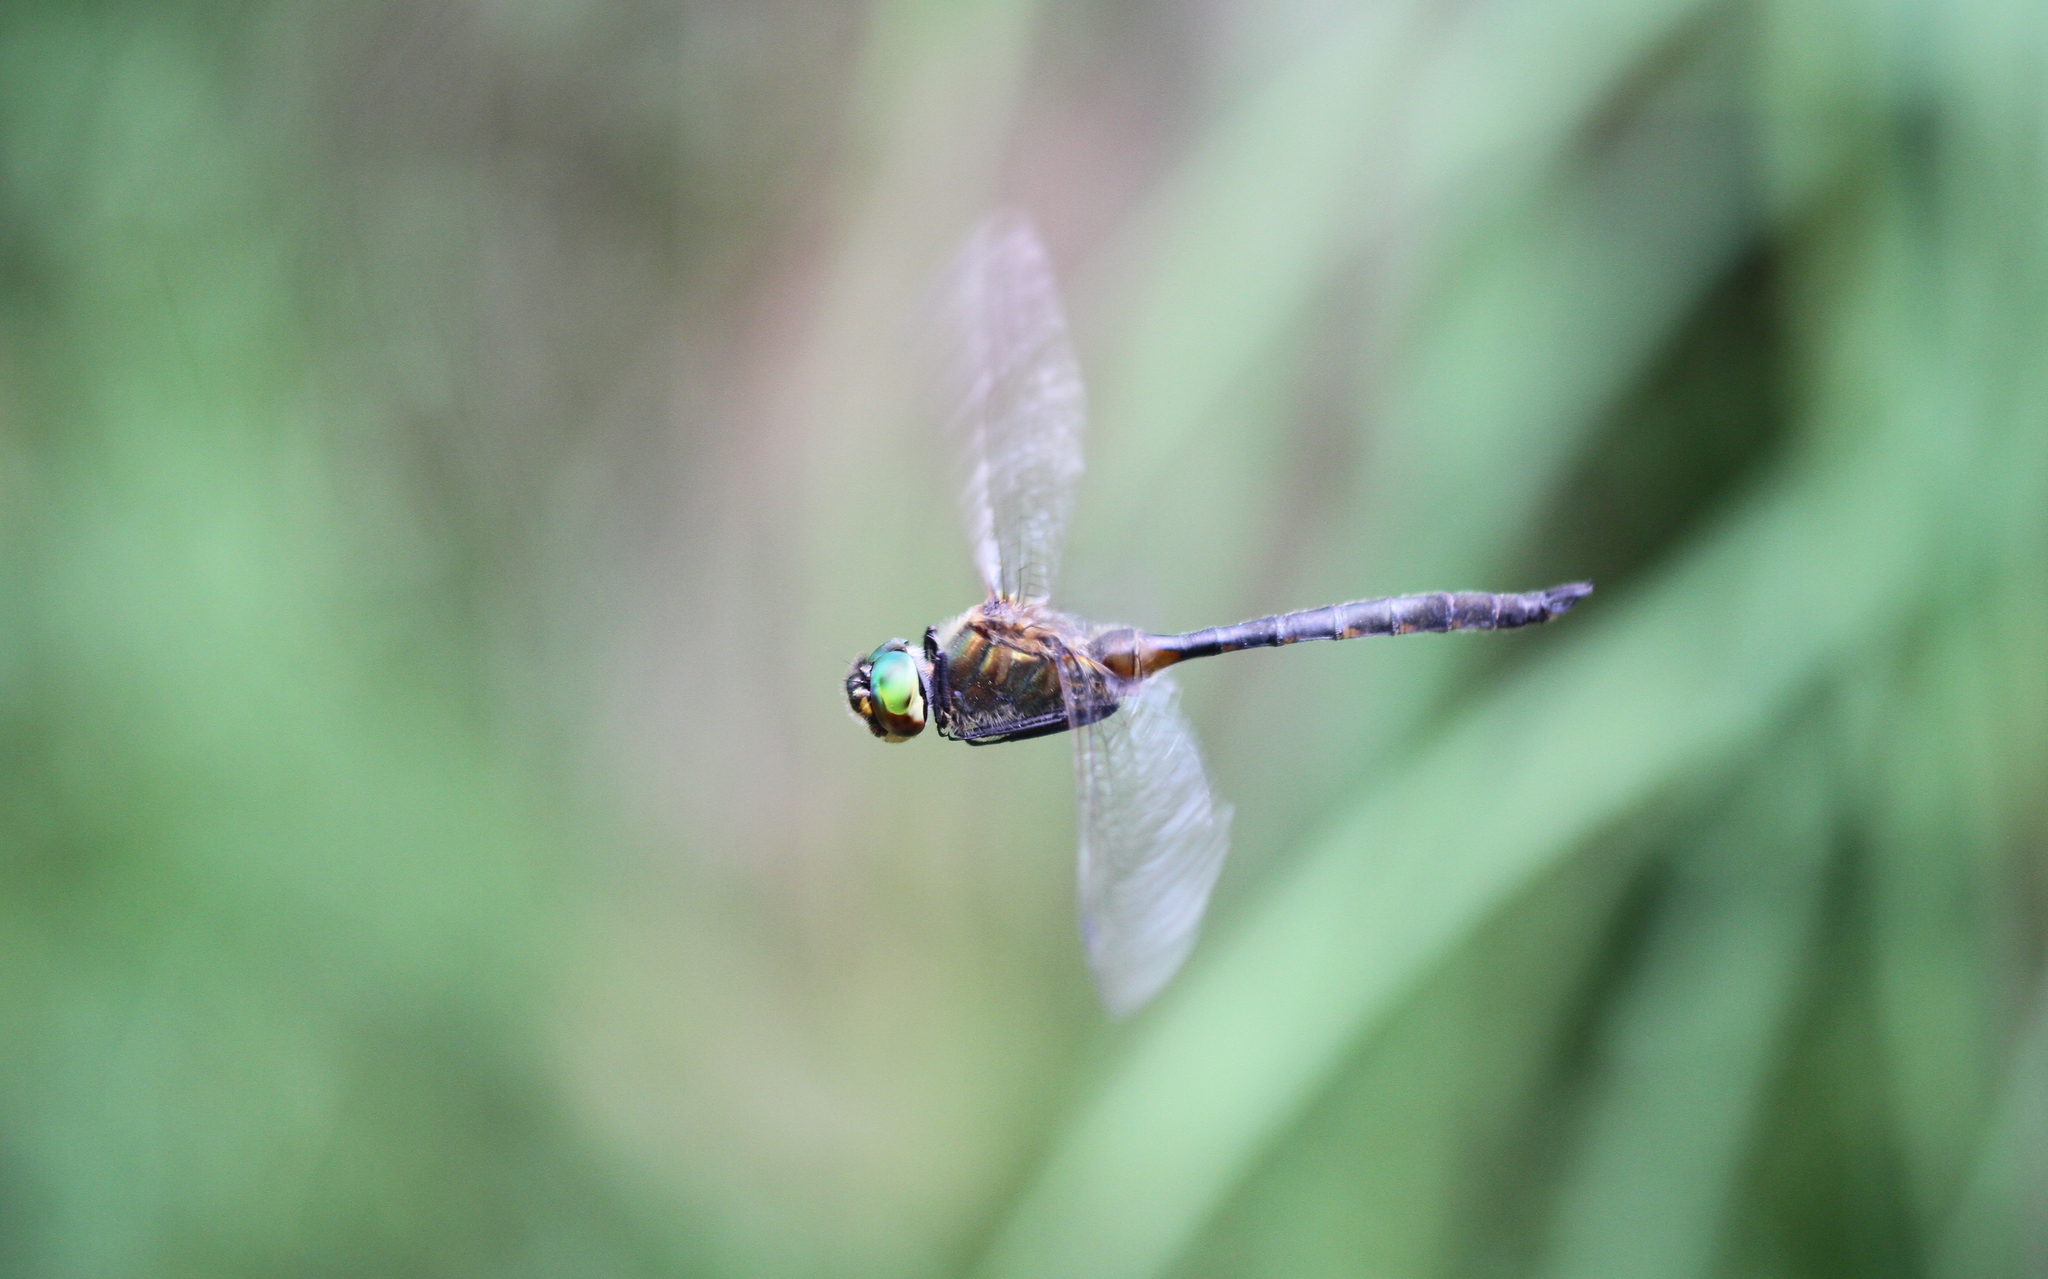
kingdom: Animalia
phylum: Arthropoda
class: Insecta
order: Odonata
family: Corduliidae
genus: Somatochlora
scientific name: Somatochlora flavomaculata
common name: Yellow-spotted emerald
